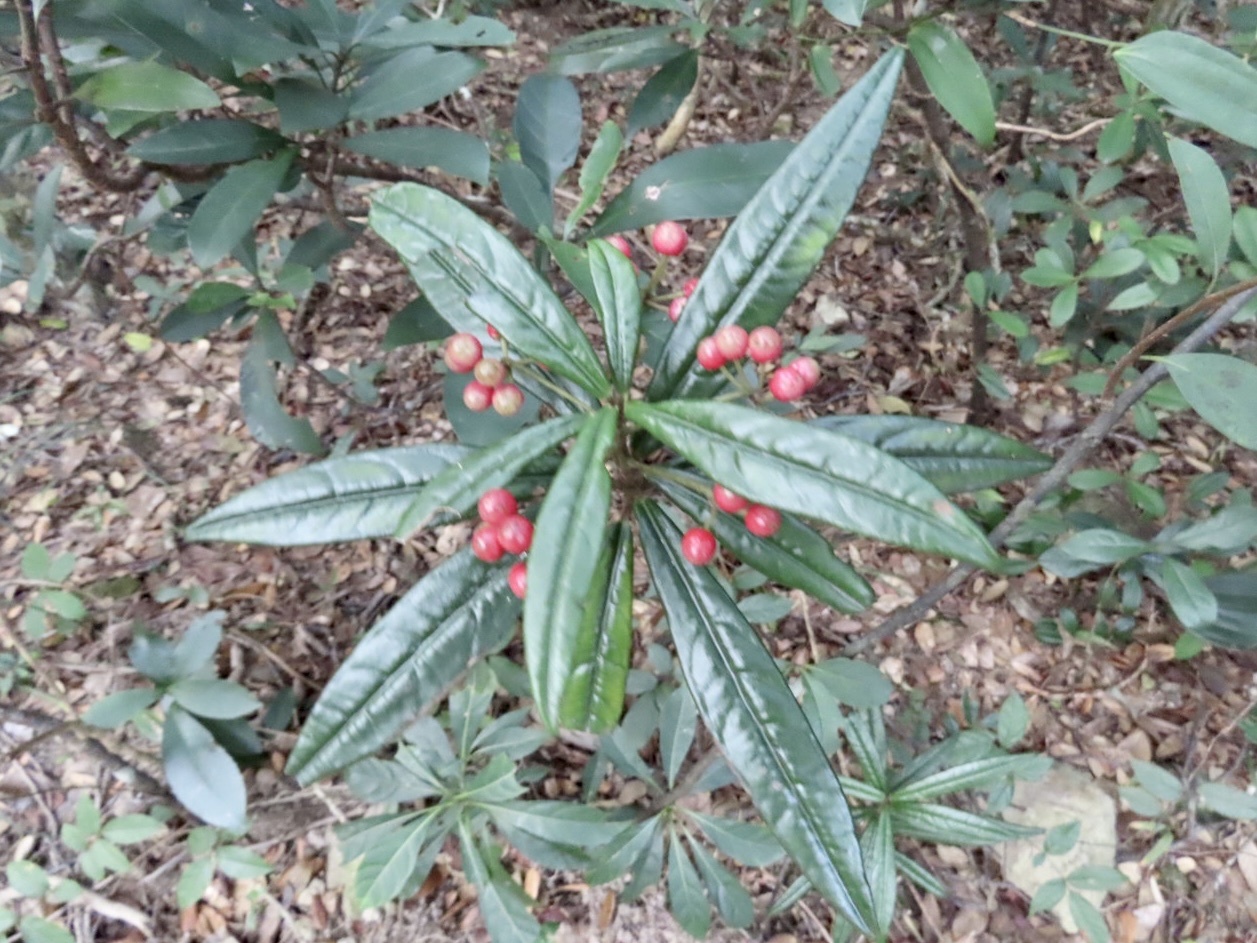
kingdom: Plantae
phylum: Tracheophyta
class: Magnoliopsida
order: Ericales
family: Primulaceae
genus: Ardisia
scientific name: Ardisia lindleyana
